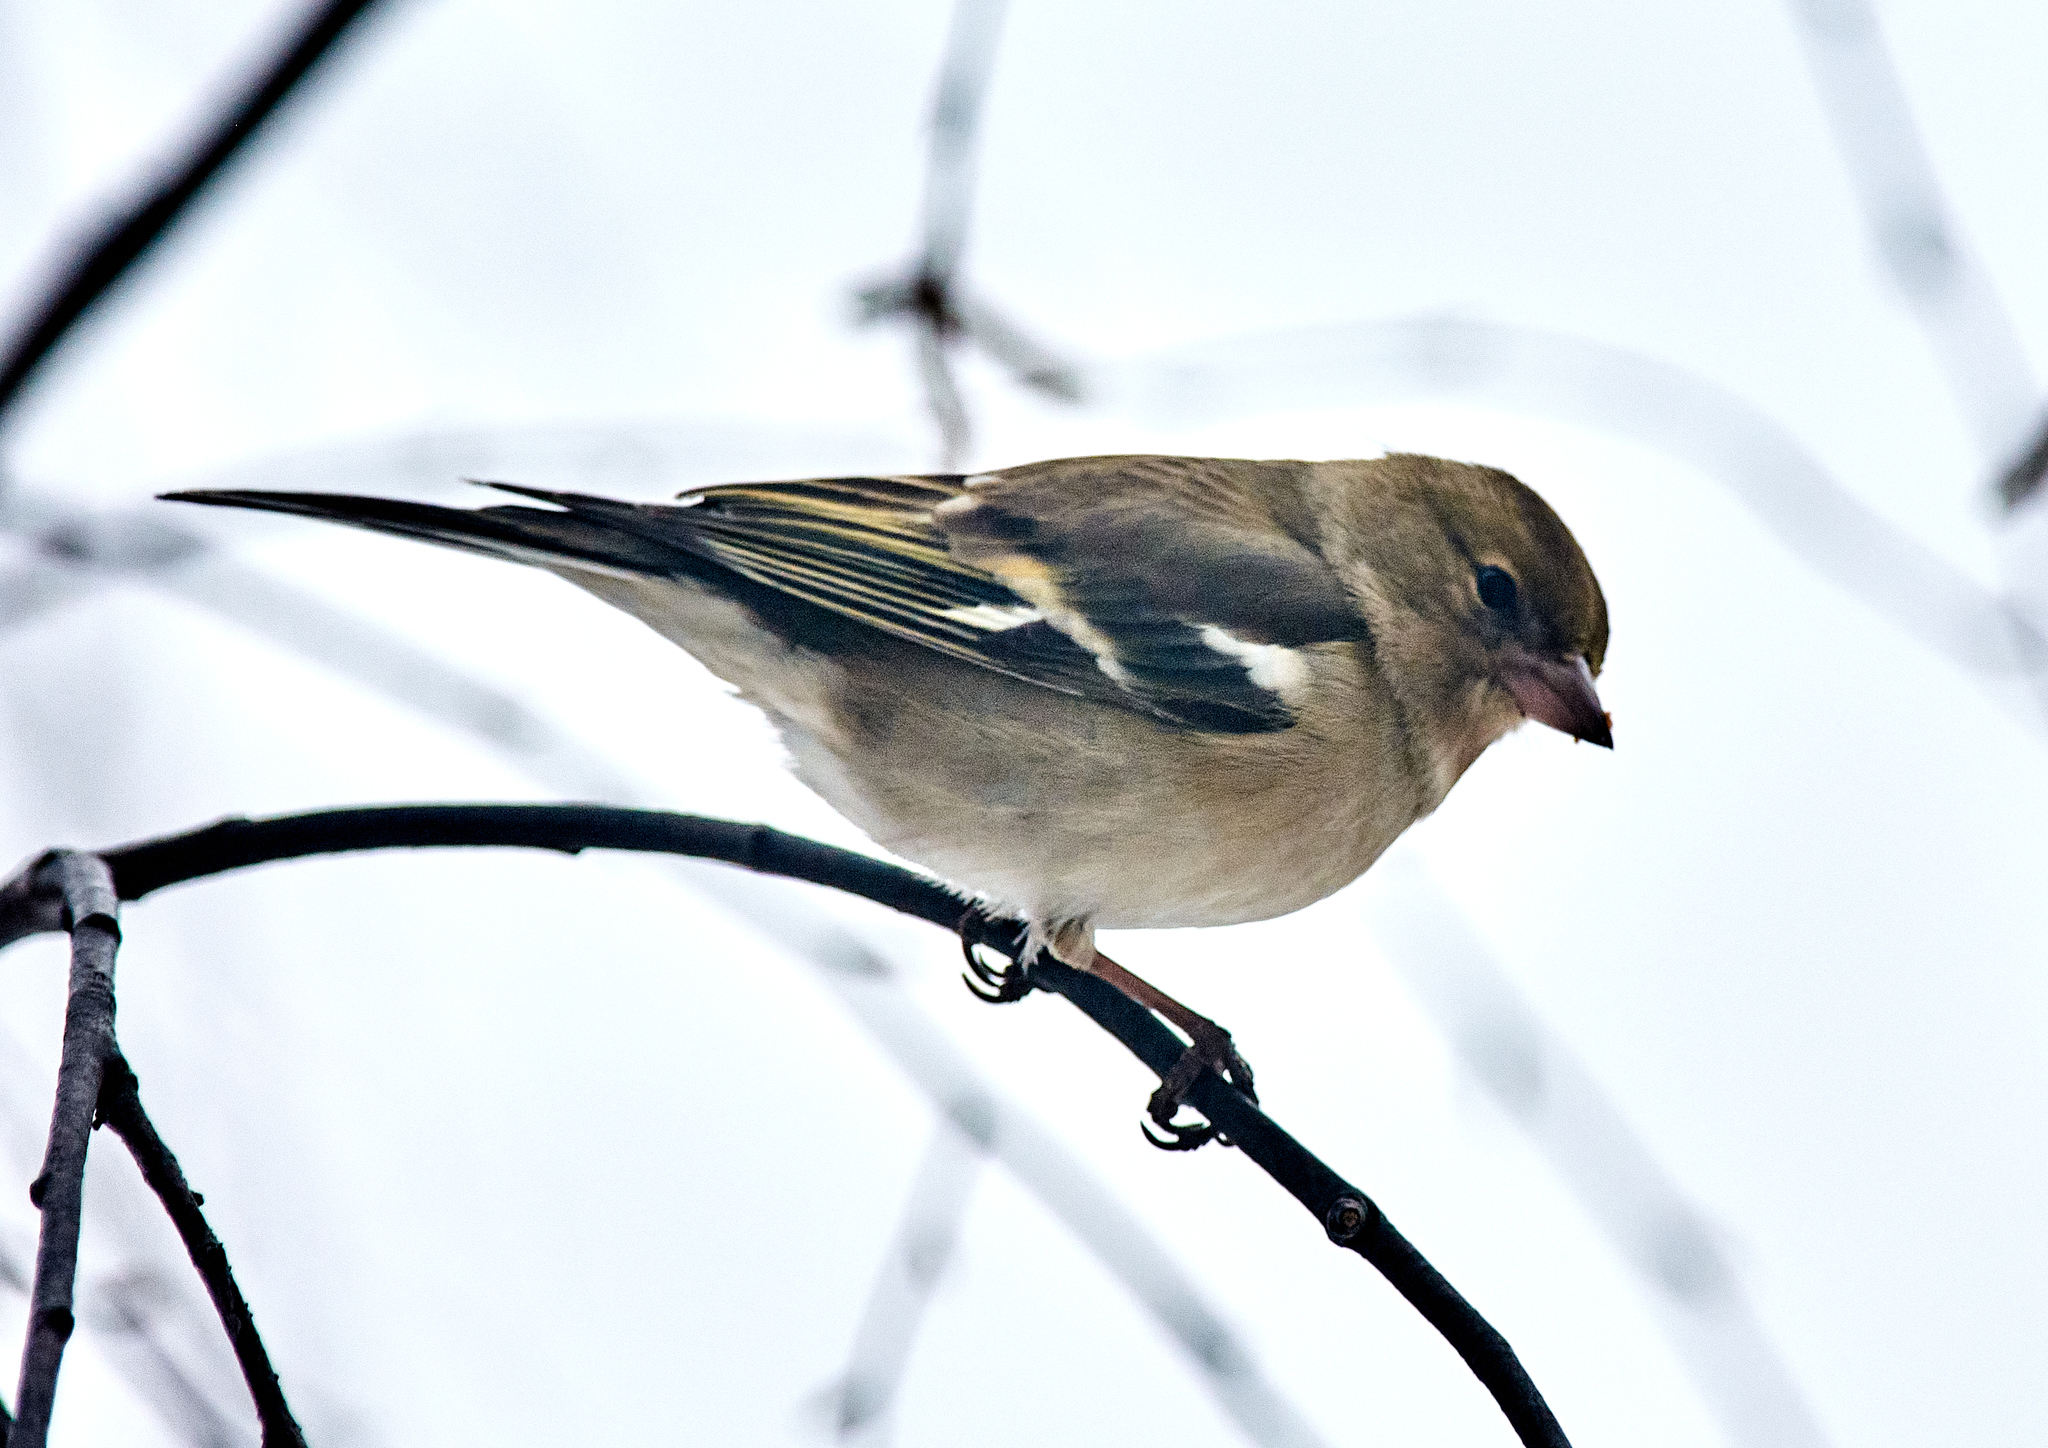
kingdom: Animalia
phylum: Chordata
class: Aves
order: Passeriformes
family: Fringillidae
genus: Fringilla
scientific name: Fringilla coelebs
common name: Common chaffinch
